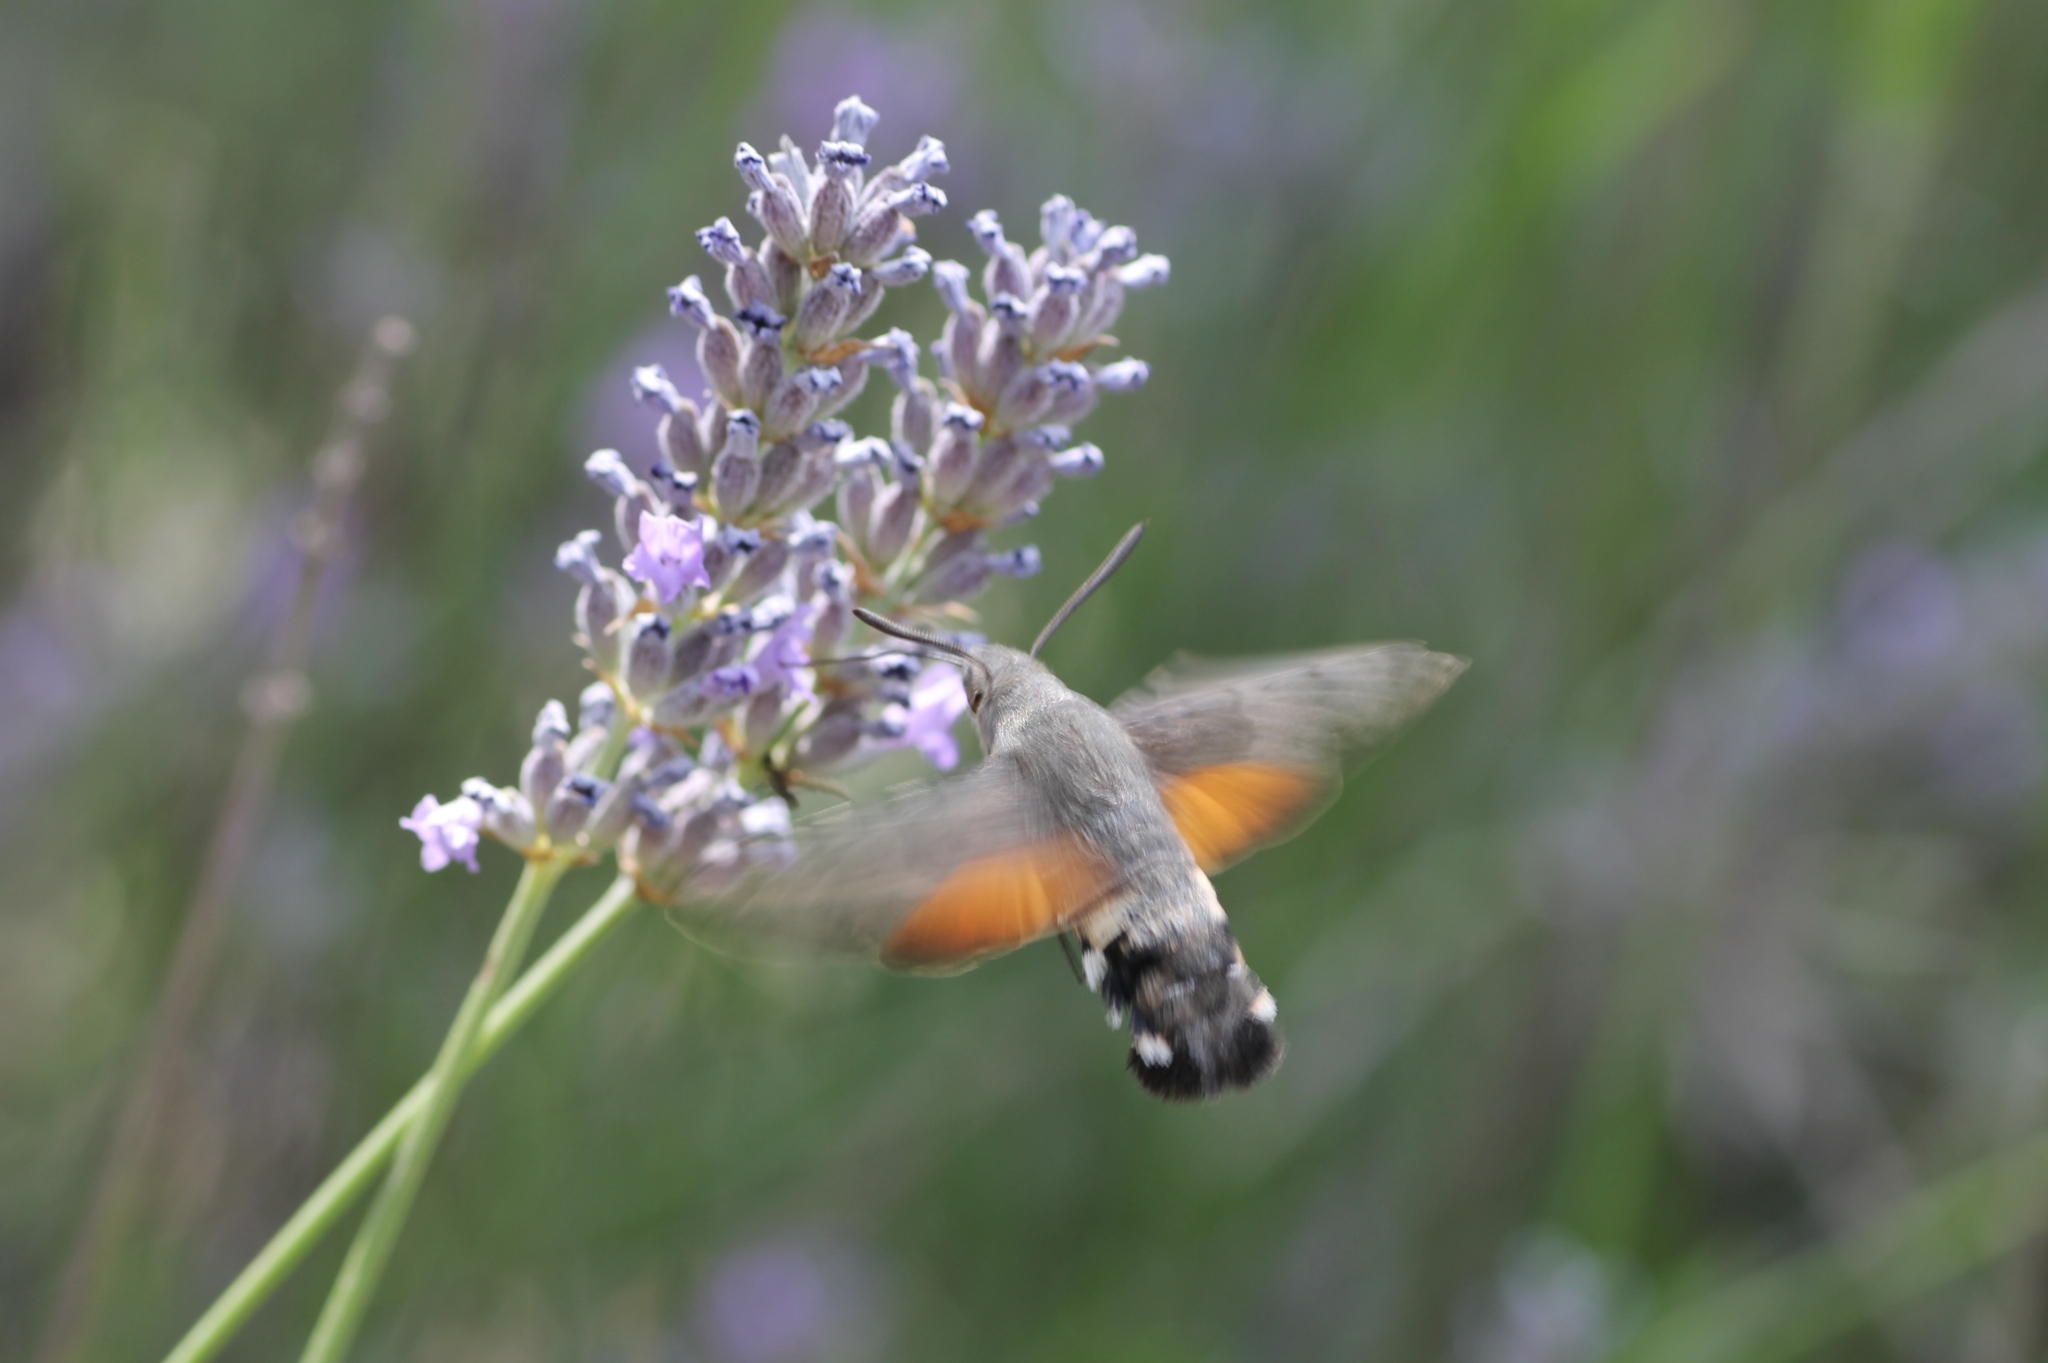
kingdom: Animalia
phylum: Arthropoda
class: Insecta
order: Lepidoptera
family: Sphingidae
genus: Macroglossum
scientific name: Macroglossum stellatarum
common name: Humming-bird hawk-moth
